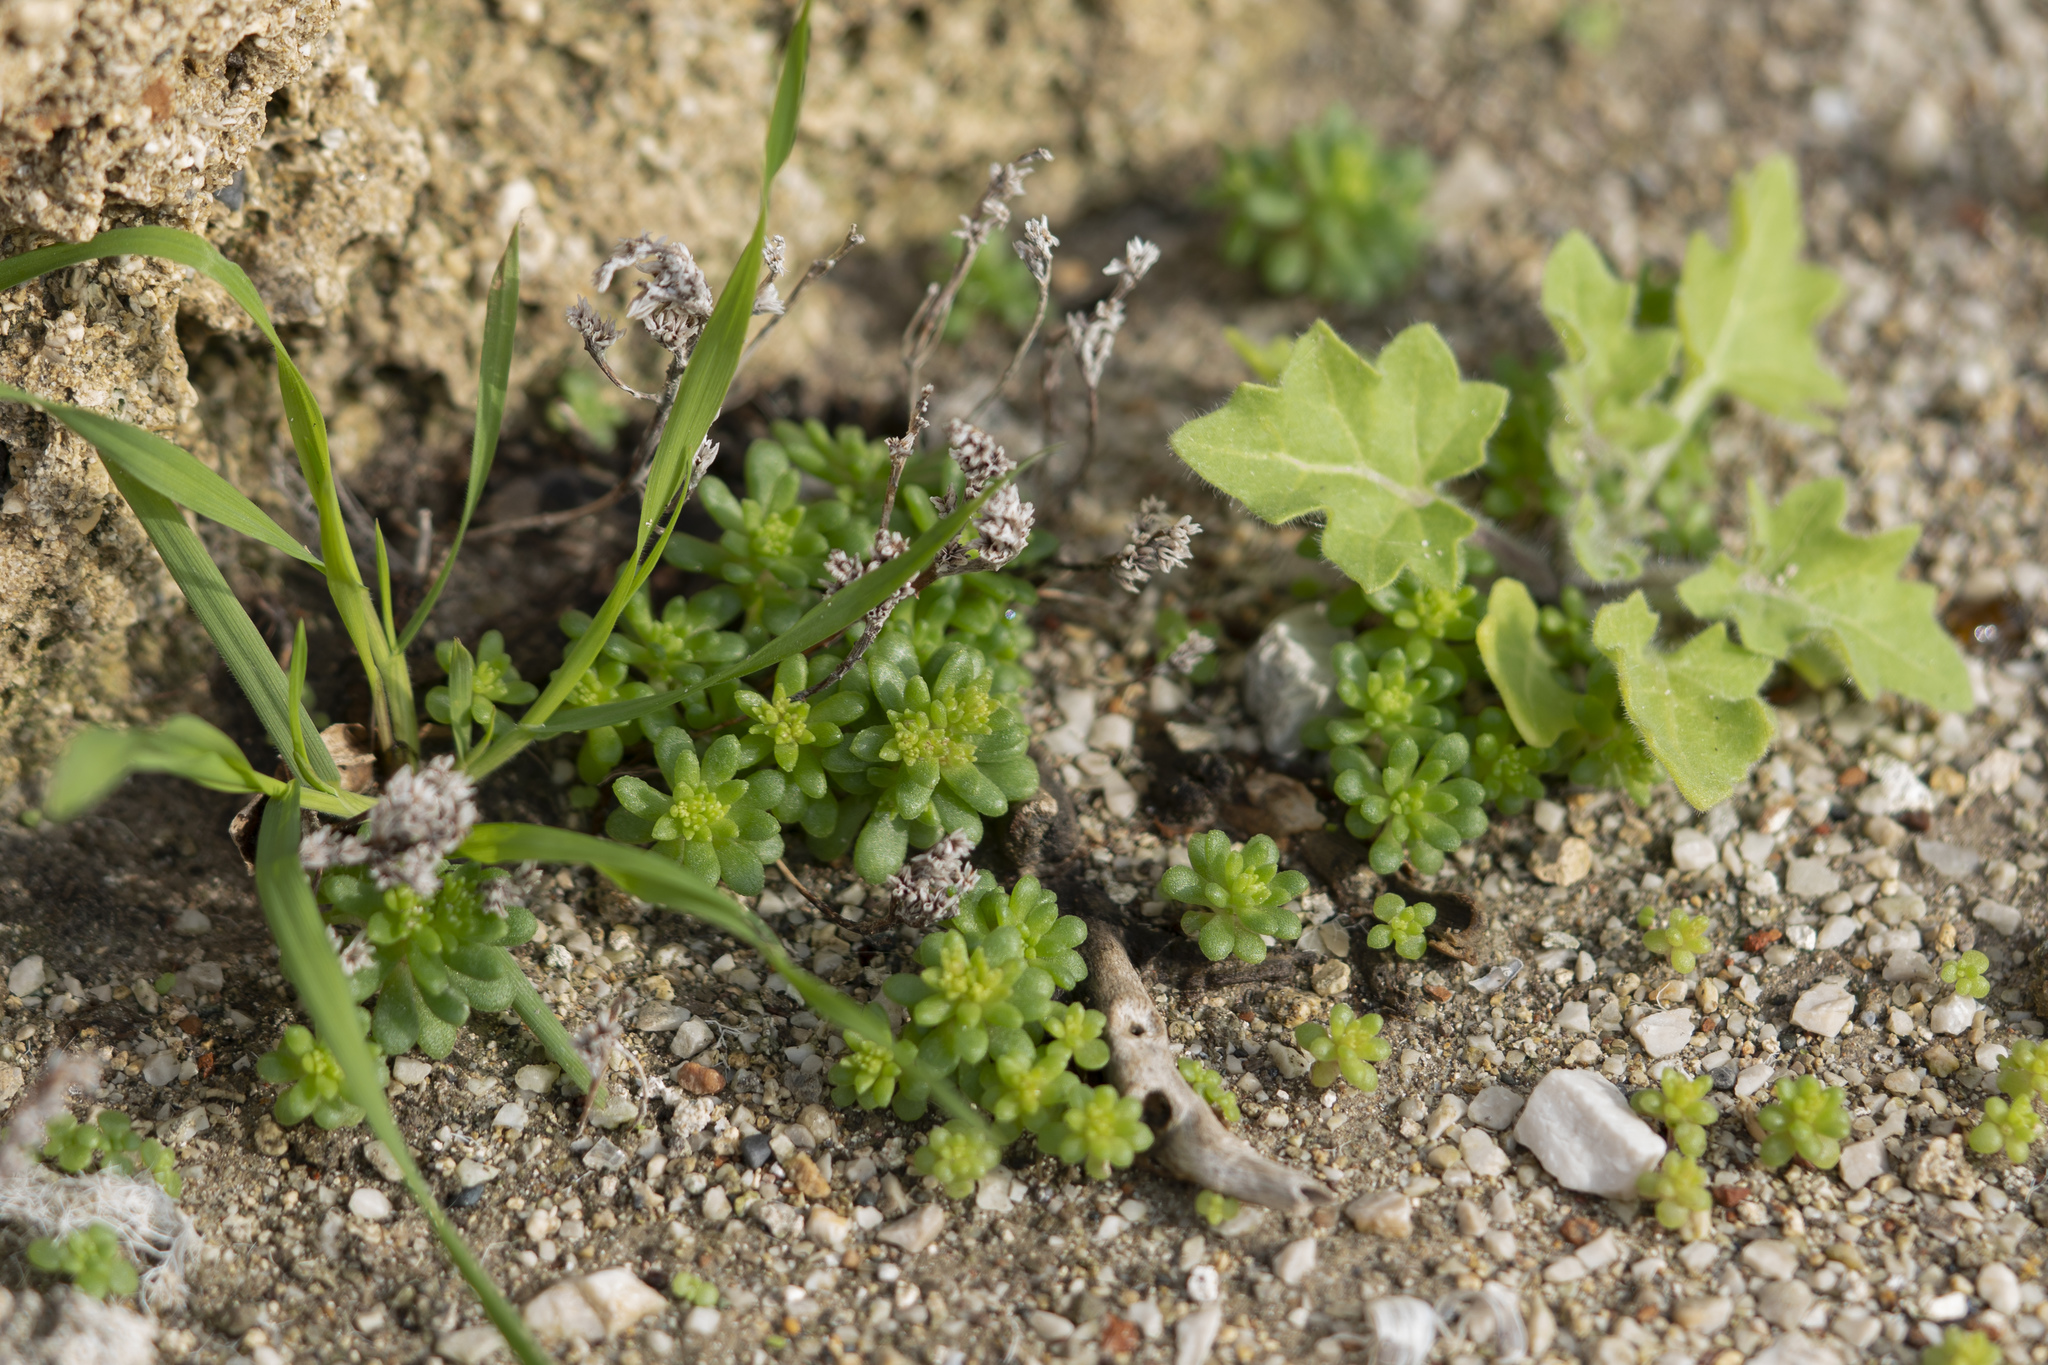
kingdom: Plantae
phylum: Tracheophyta
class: Magnoliopsida
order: Saxifragales
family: Crassulaceae
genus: Sedum
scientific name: Sedum litoreum
